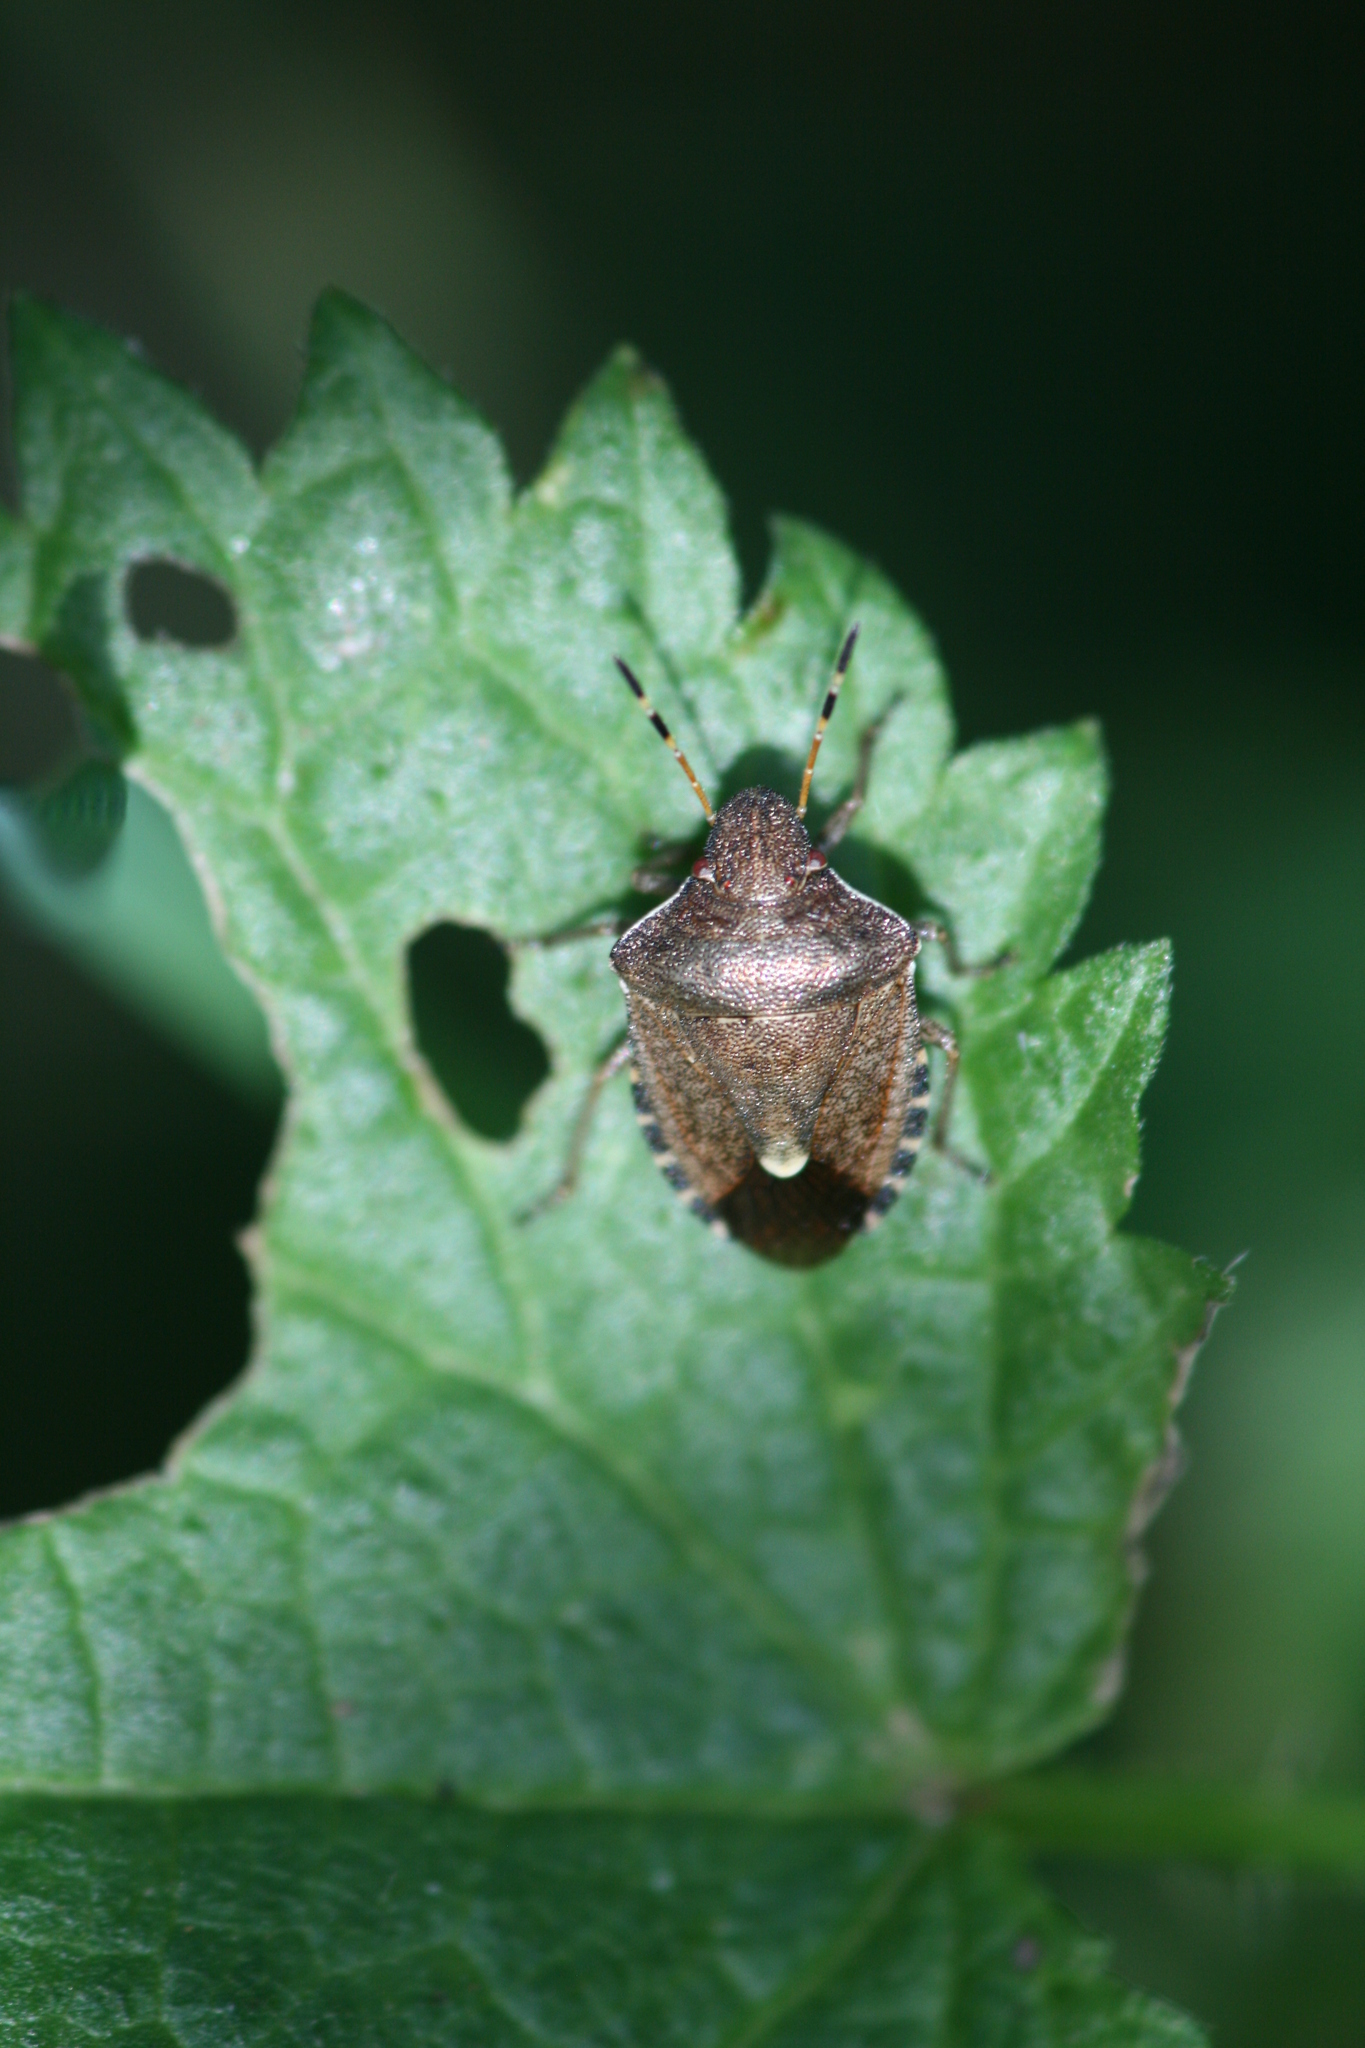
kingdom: Animalia
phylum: Arthropoda
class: Insecta
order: Hemiptera
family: Pentatomidae
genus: Holcostethus
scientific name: Holcostethus strictus
